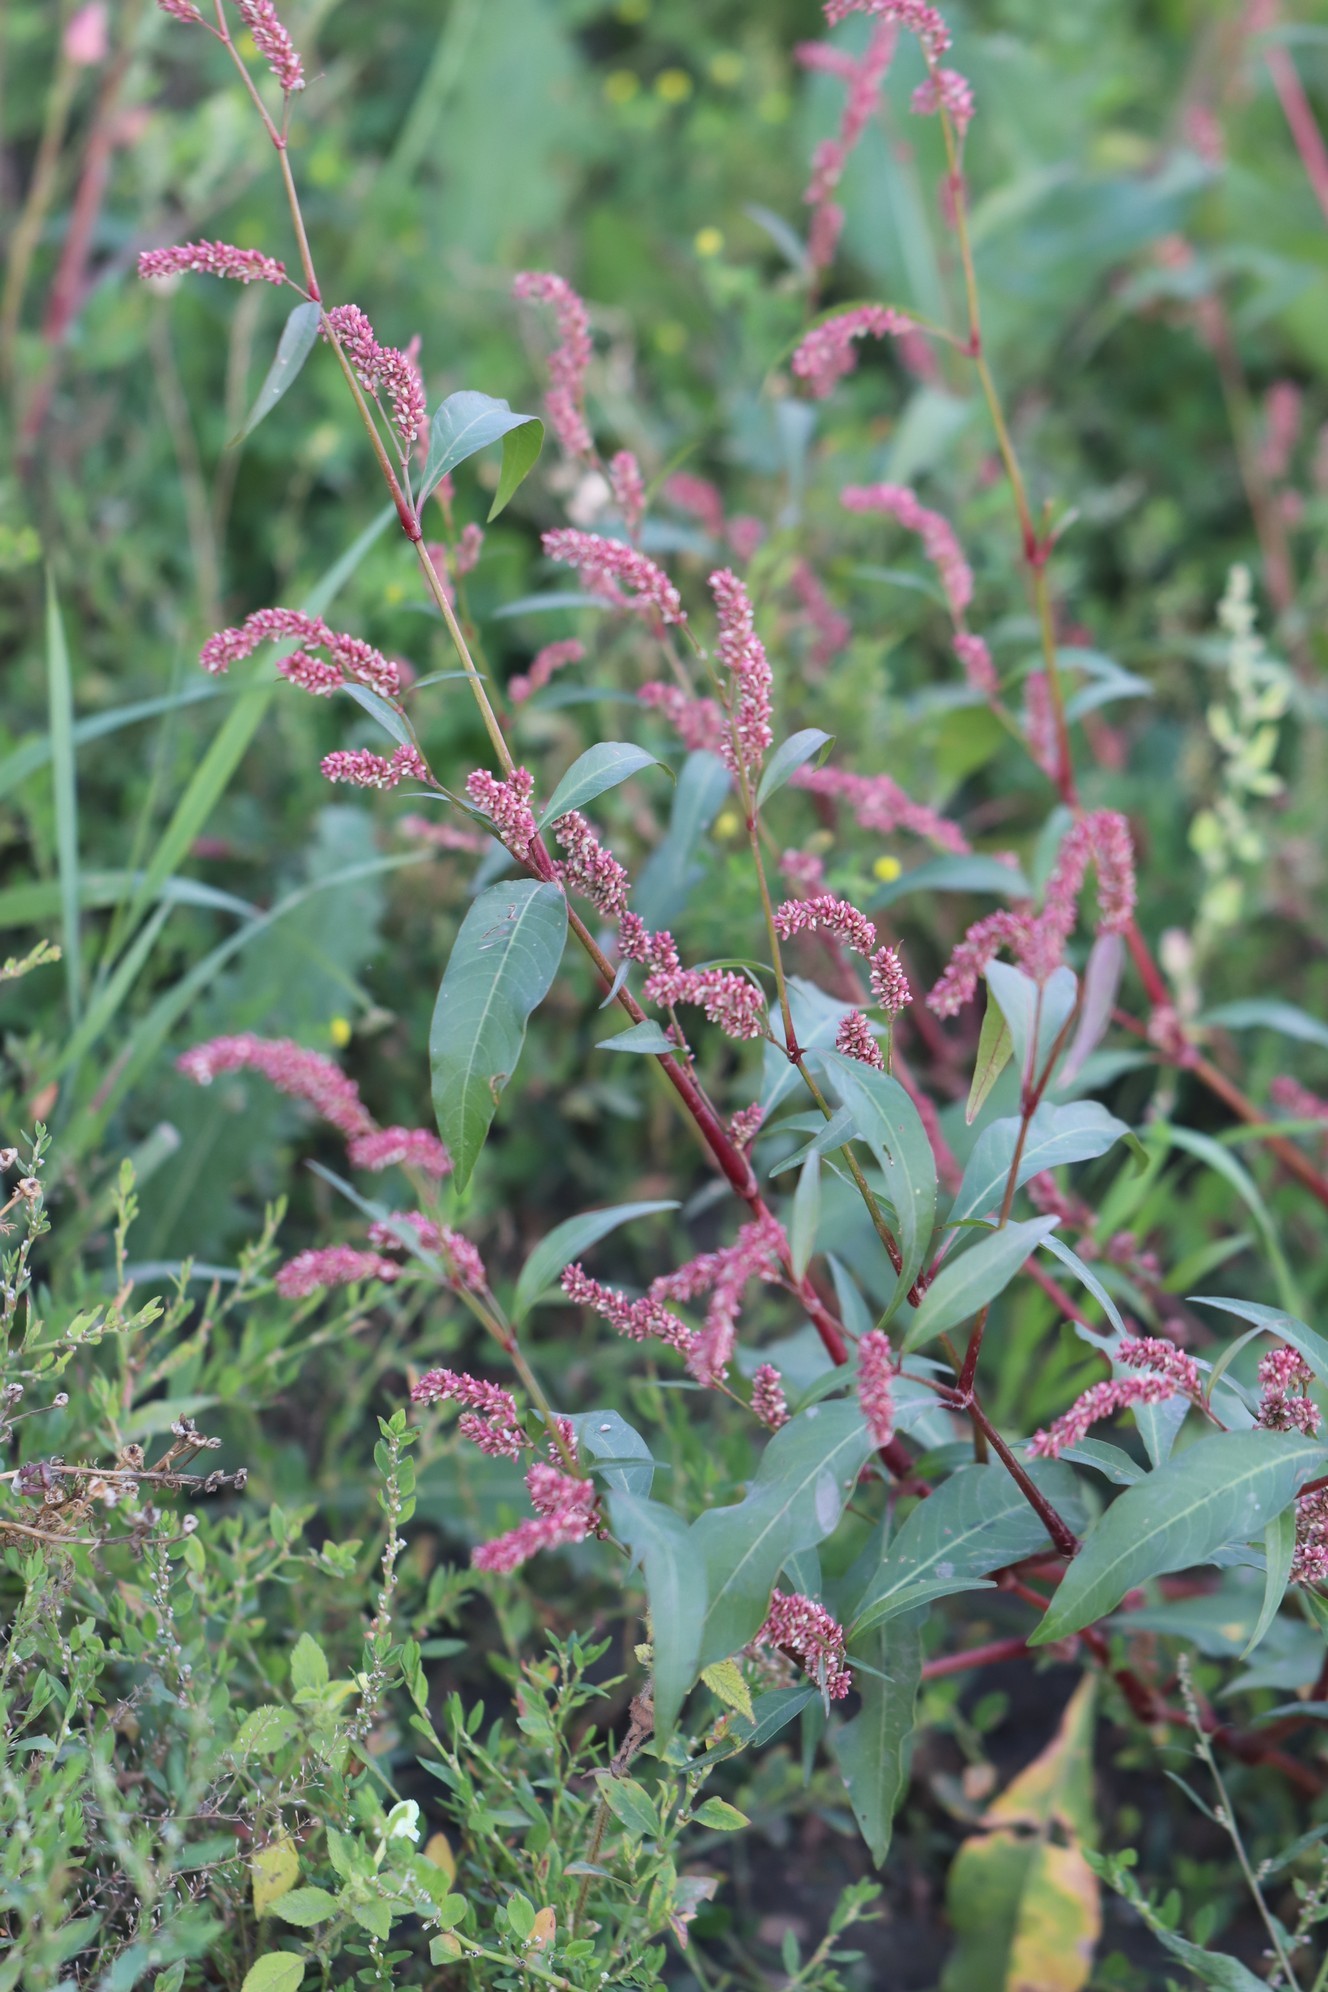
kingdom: Plantae
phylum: Tracheophyta
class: Magnoliopsida
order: Caryophyllales
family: Polygonaceae
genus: Persicaria
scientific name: Persicaria lapathifolia
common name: Curlytop knotweed
